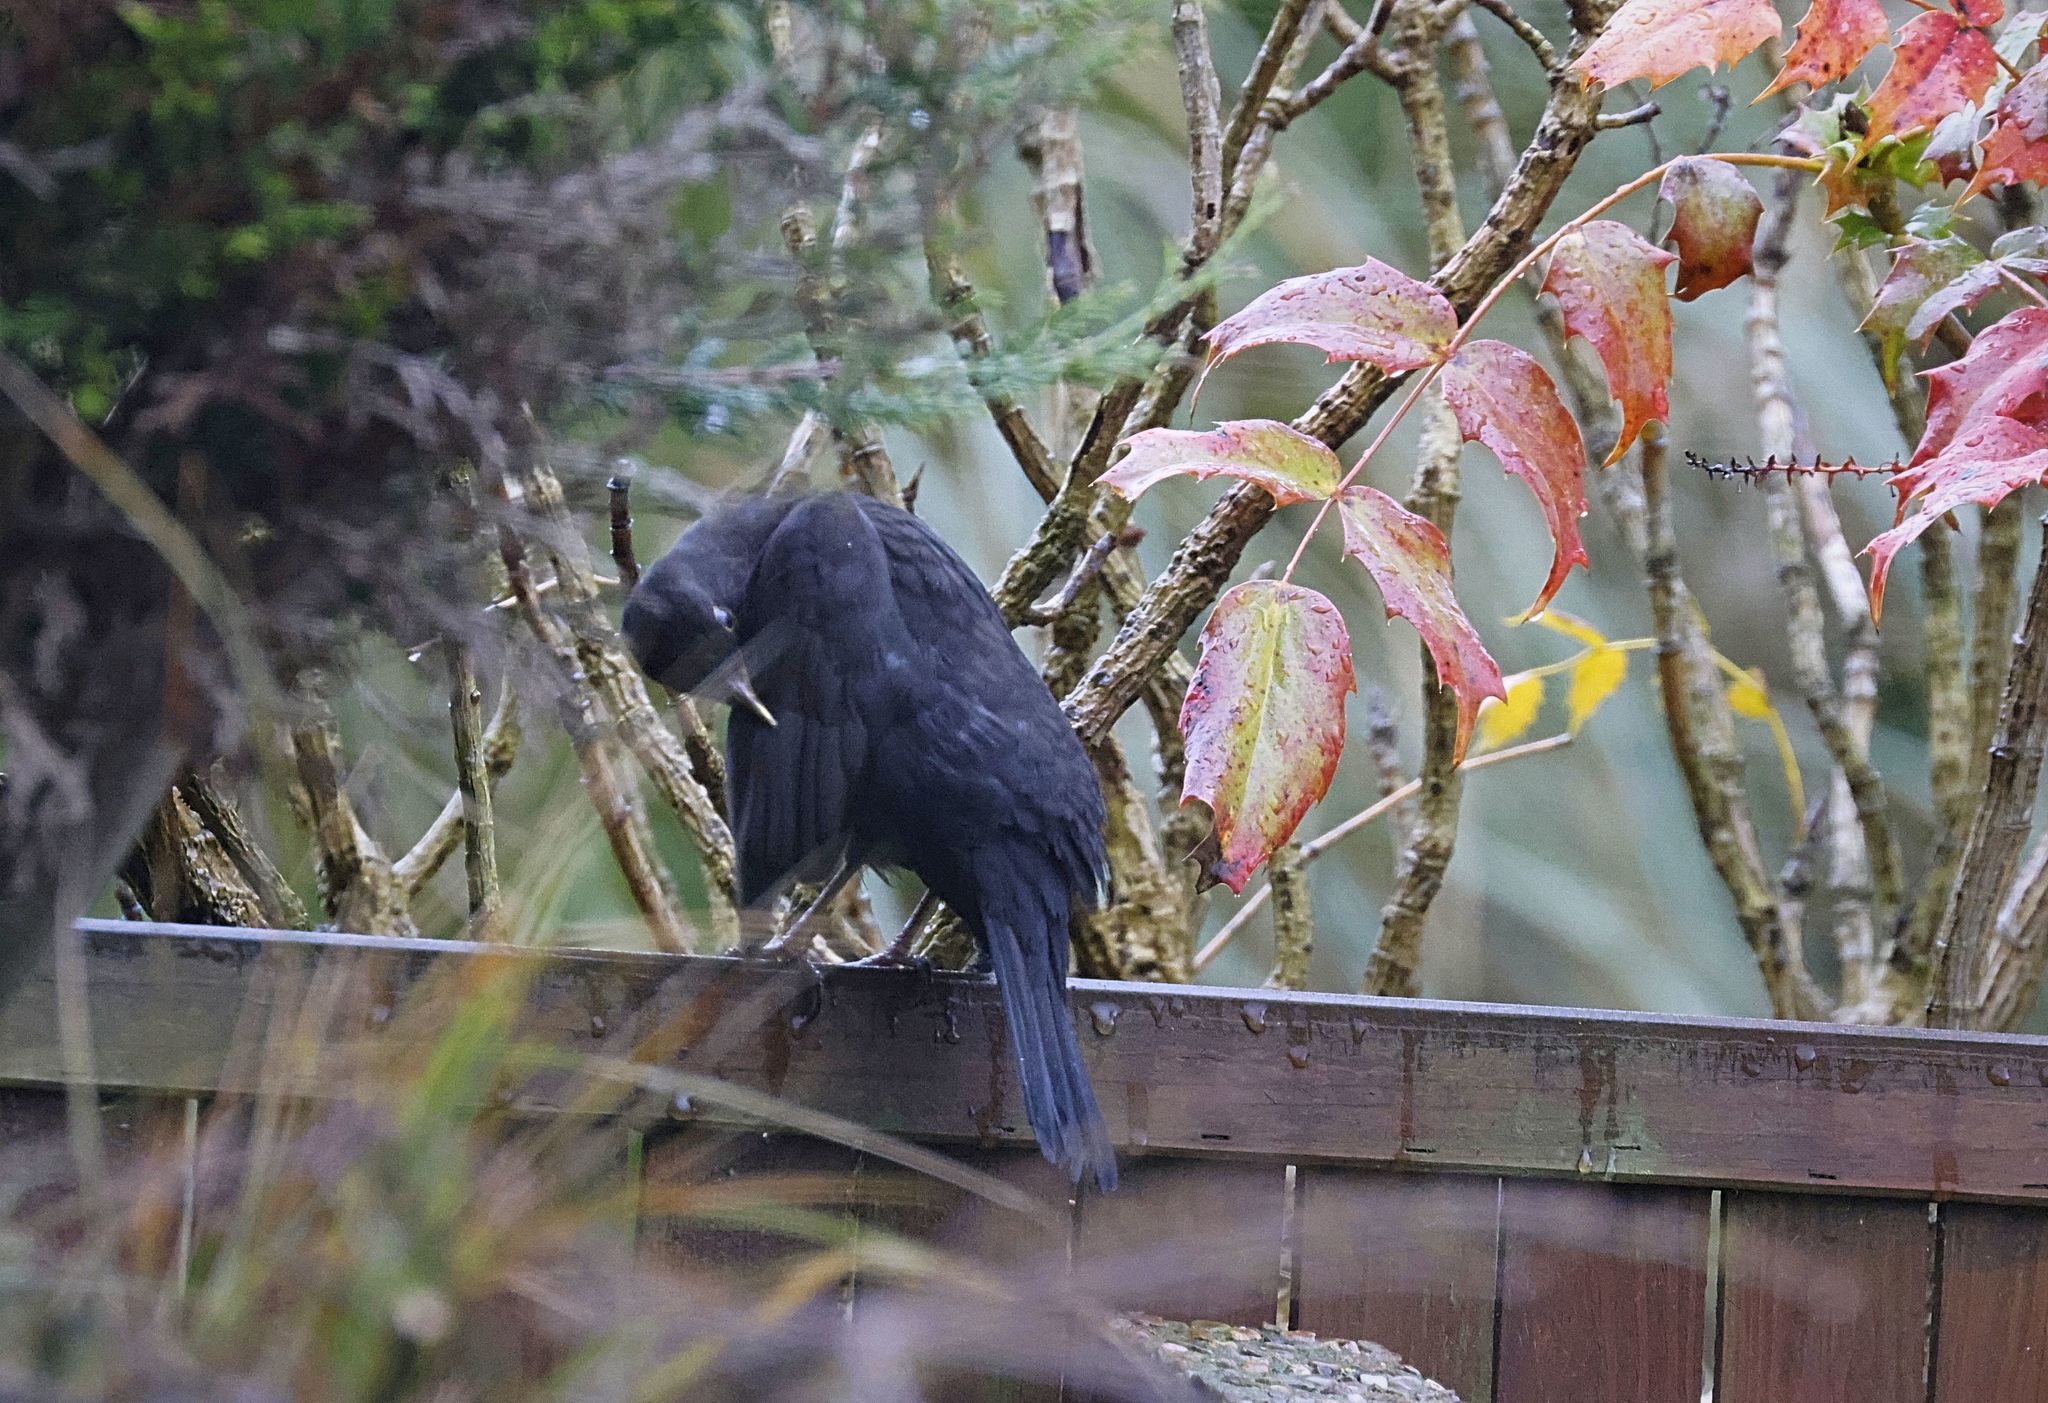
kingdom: Animalia
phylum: Chordata
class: Aves
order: Passeriformes
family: Turdidae
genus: Turdus
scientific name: Turdus merula
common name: Common blackbird
